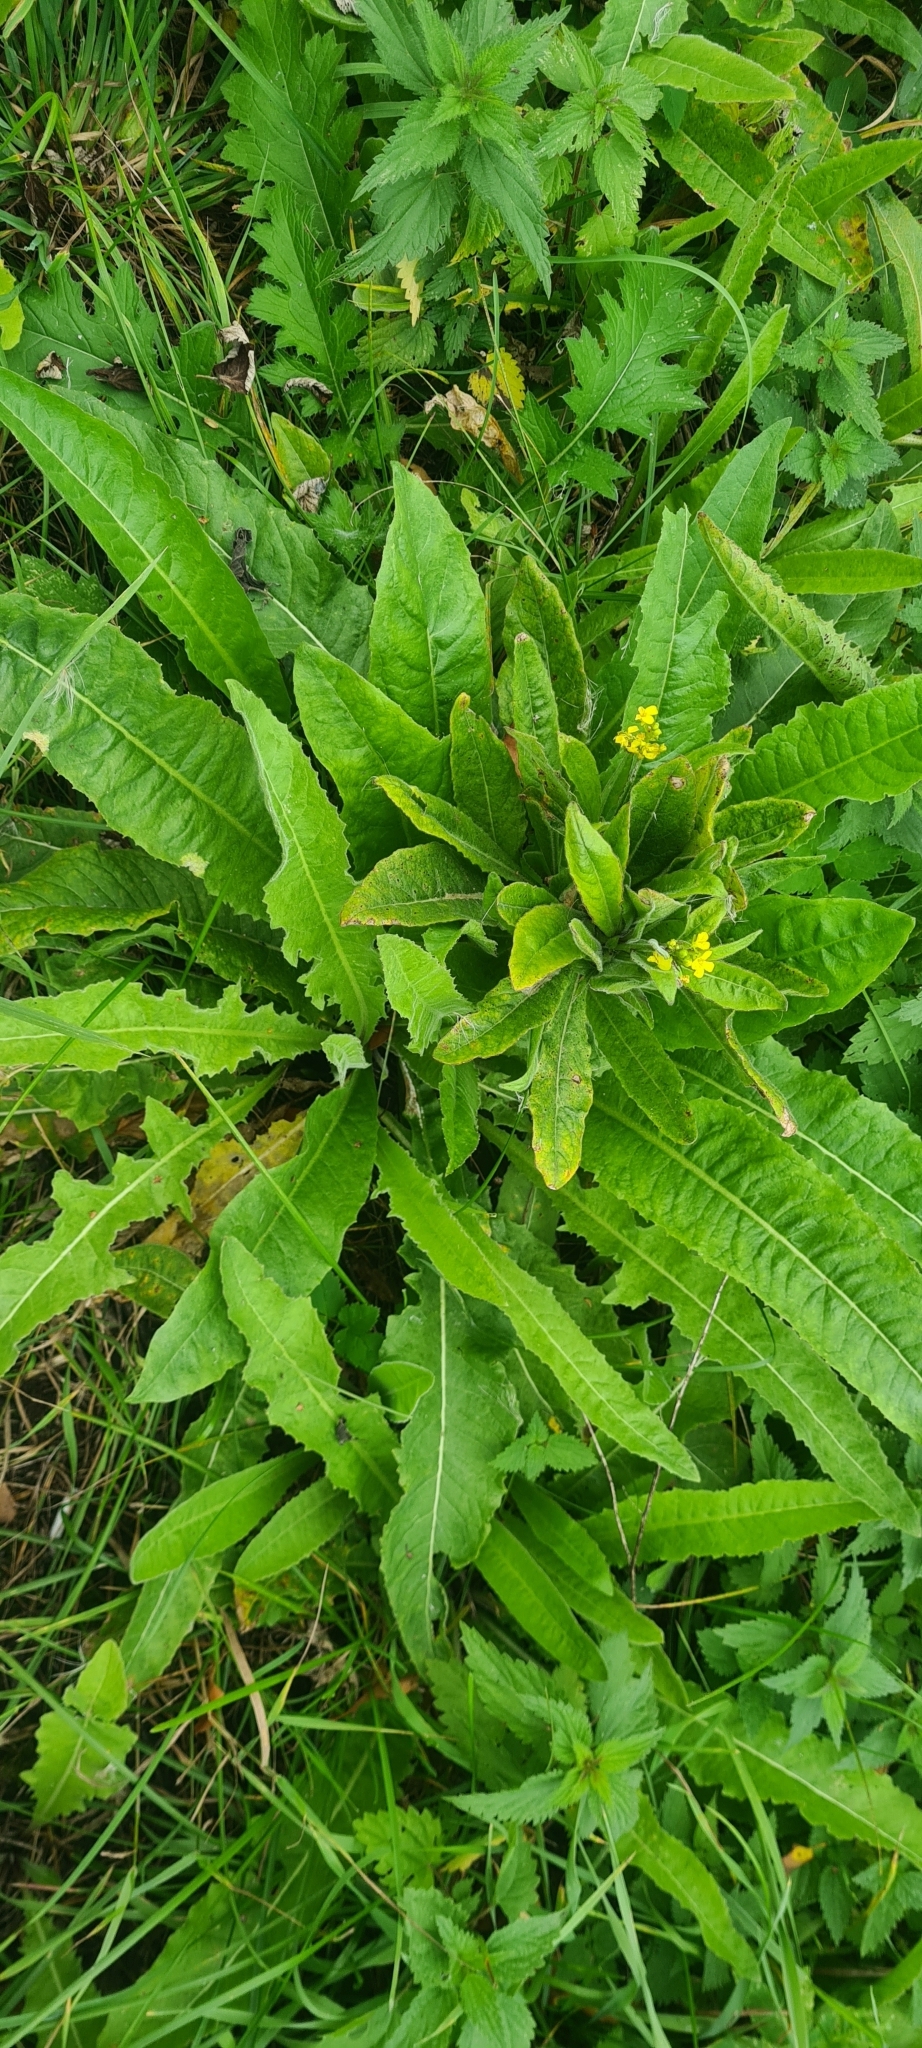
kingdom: Plantae
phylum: Tracheophyta
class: Magnoliopsida
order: Brassicales
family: Brassicaceae
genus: Bunias
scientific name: Bunias orientalis
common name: Warty-cabbage
